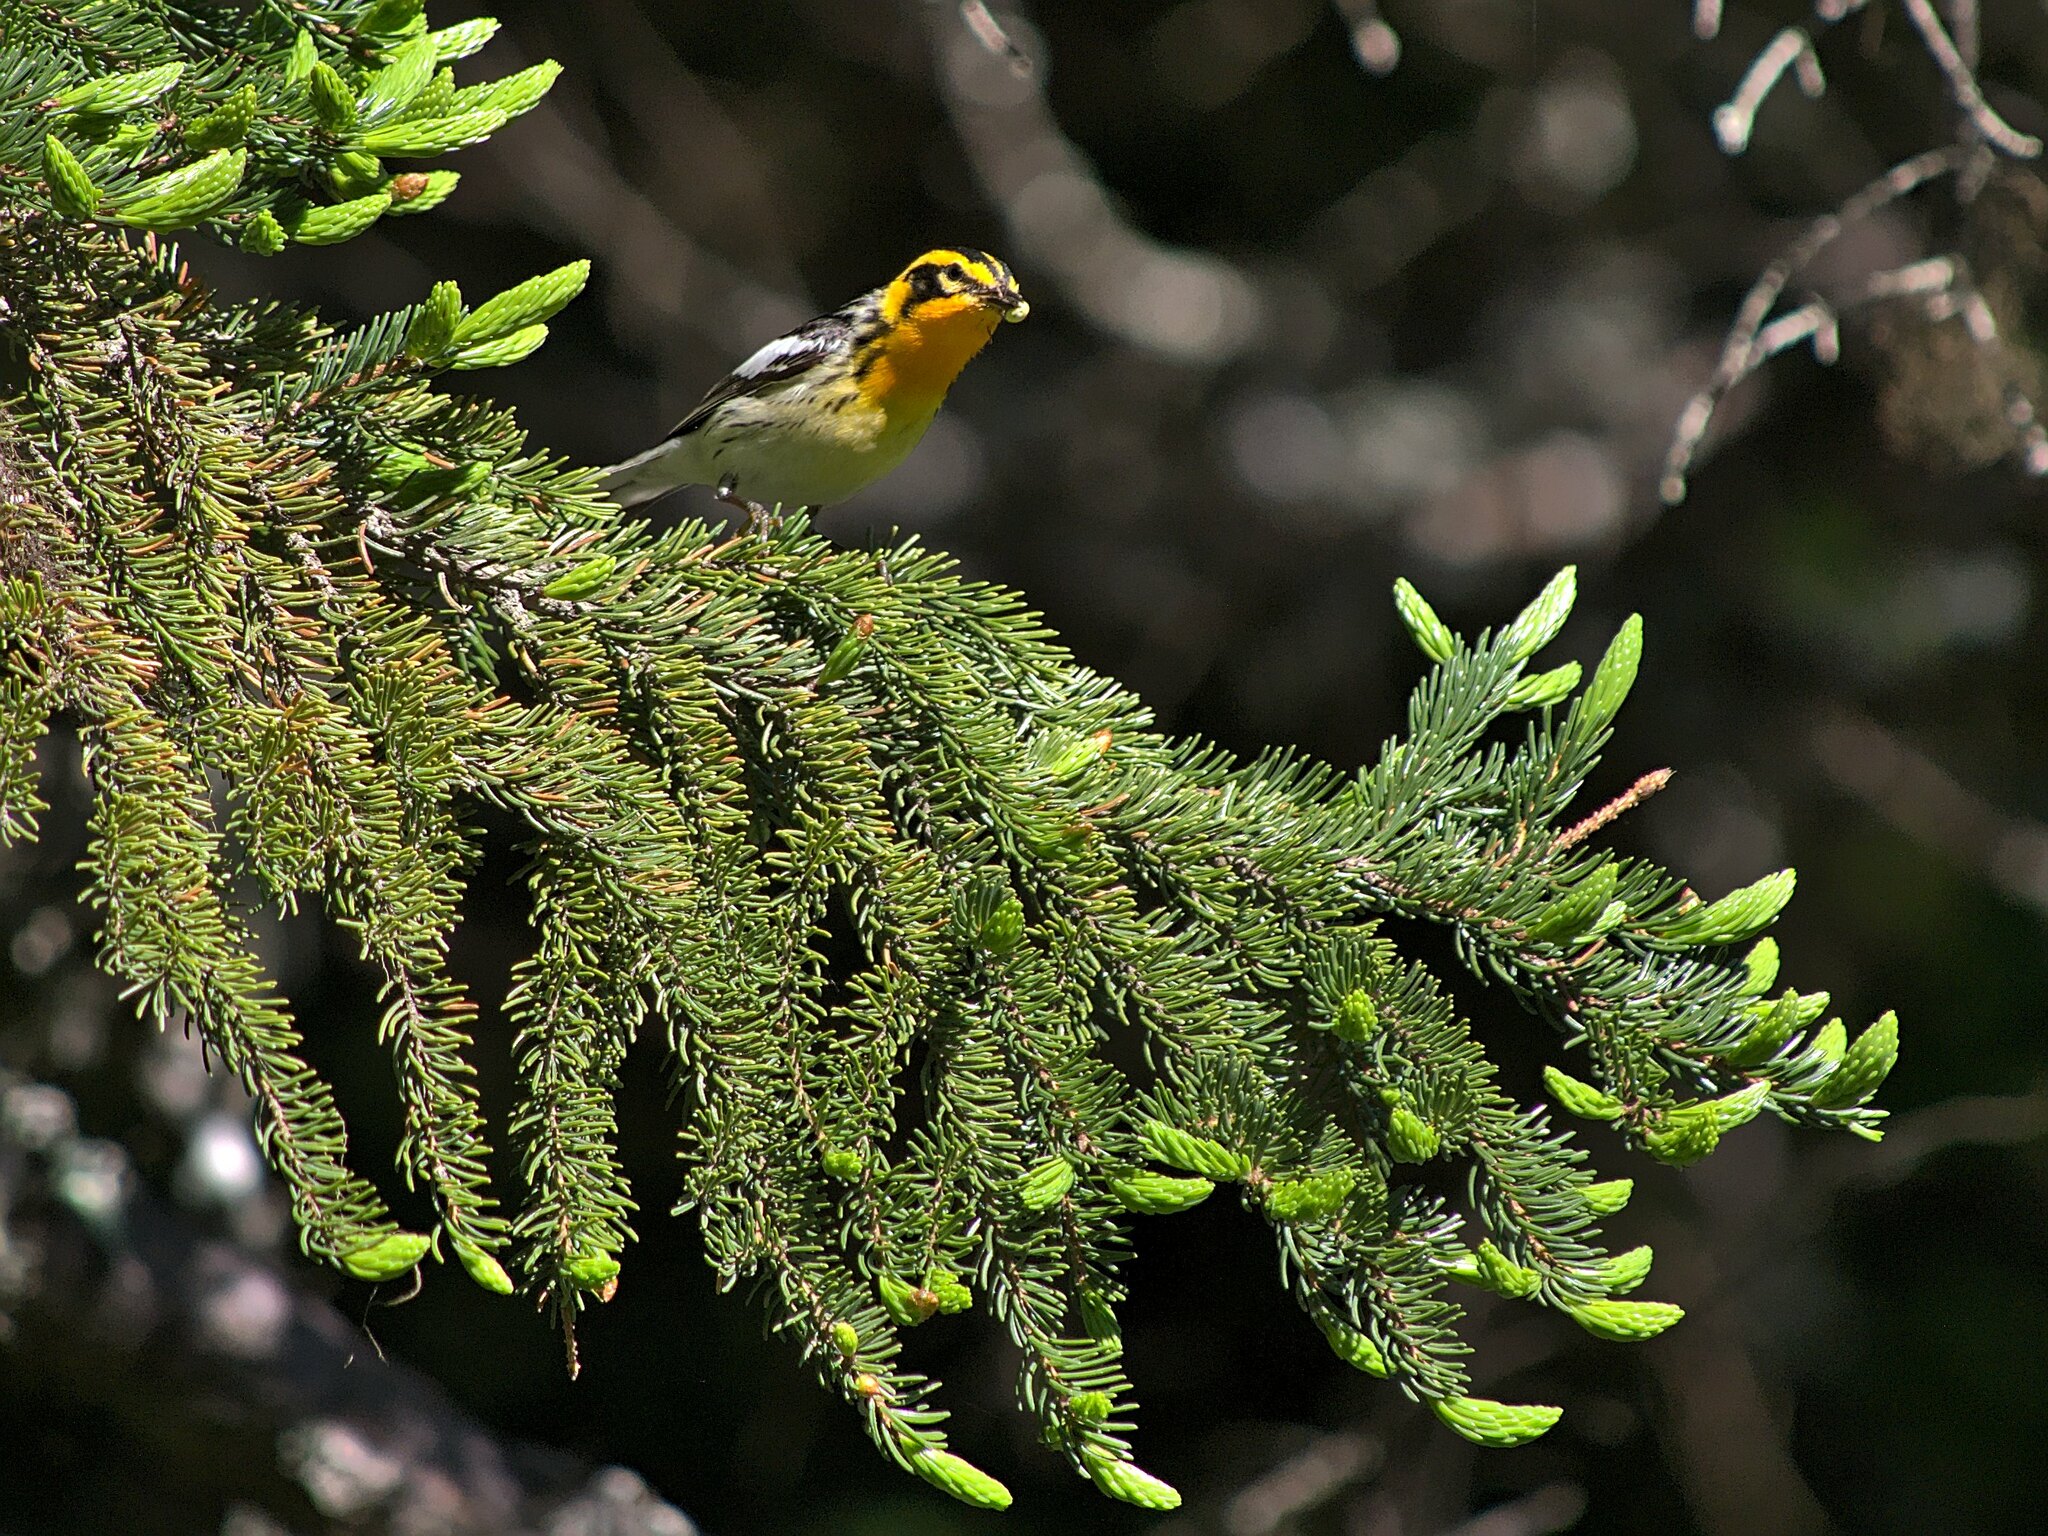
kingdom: Animalia
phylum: Chordata
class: Aves
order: Passeriformes
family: Parulidae
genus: Setophaga
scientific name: Setophaga fusca
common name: Blackburnian warbler
